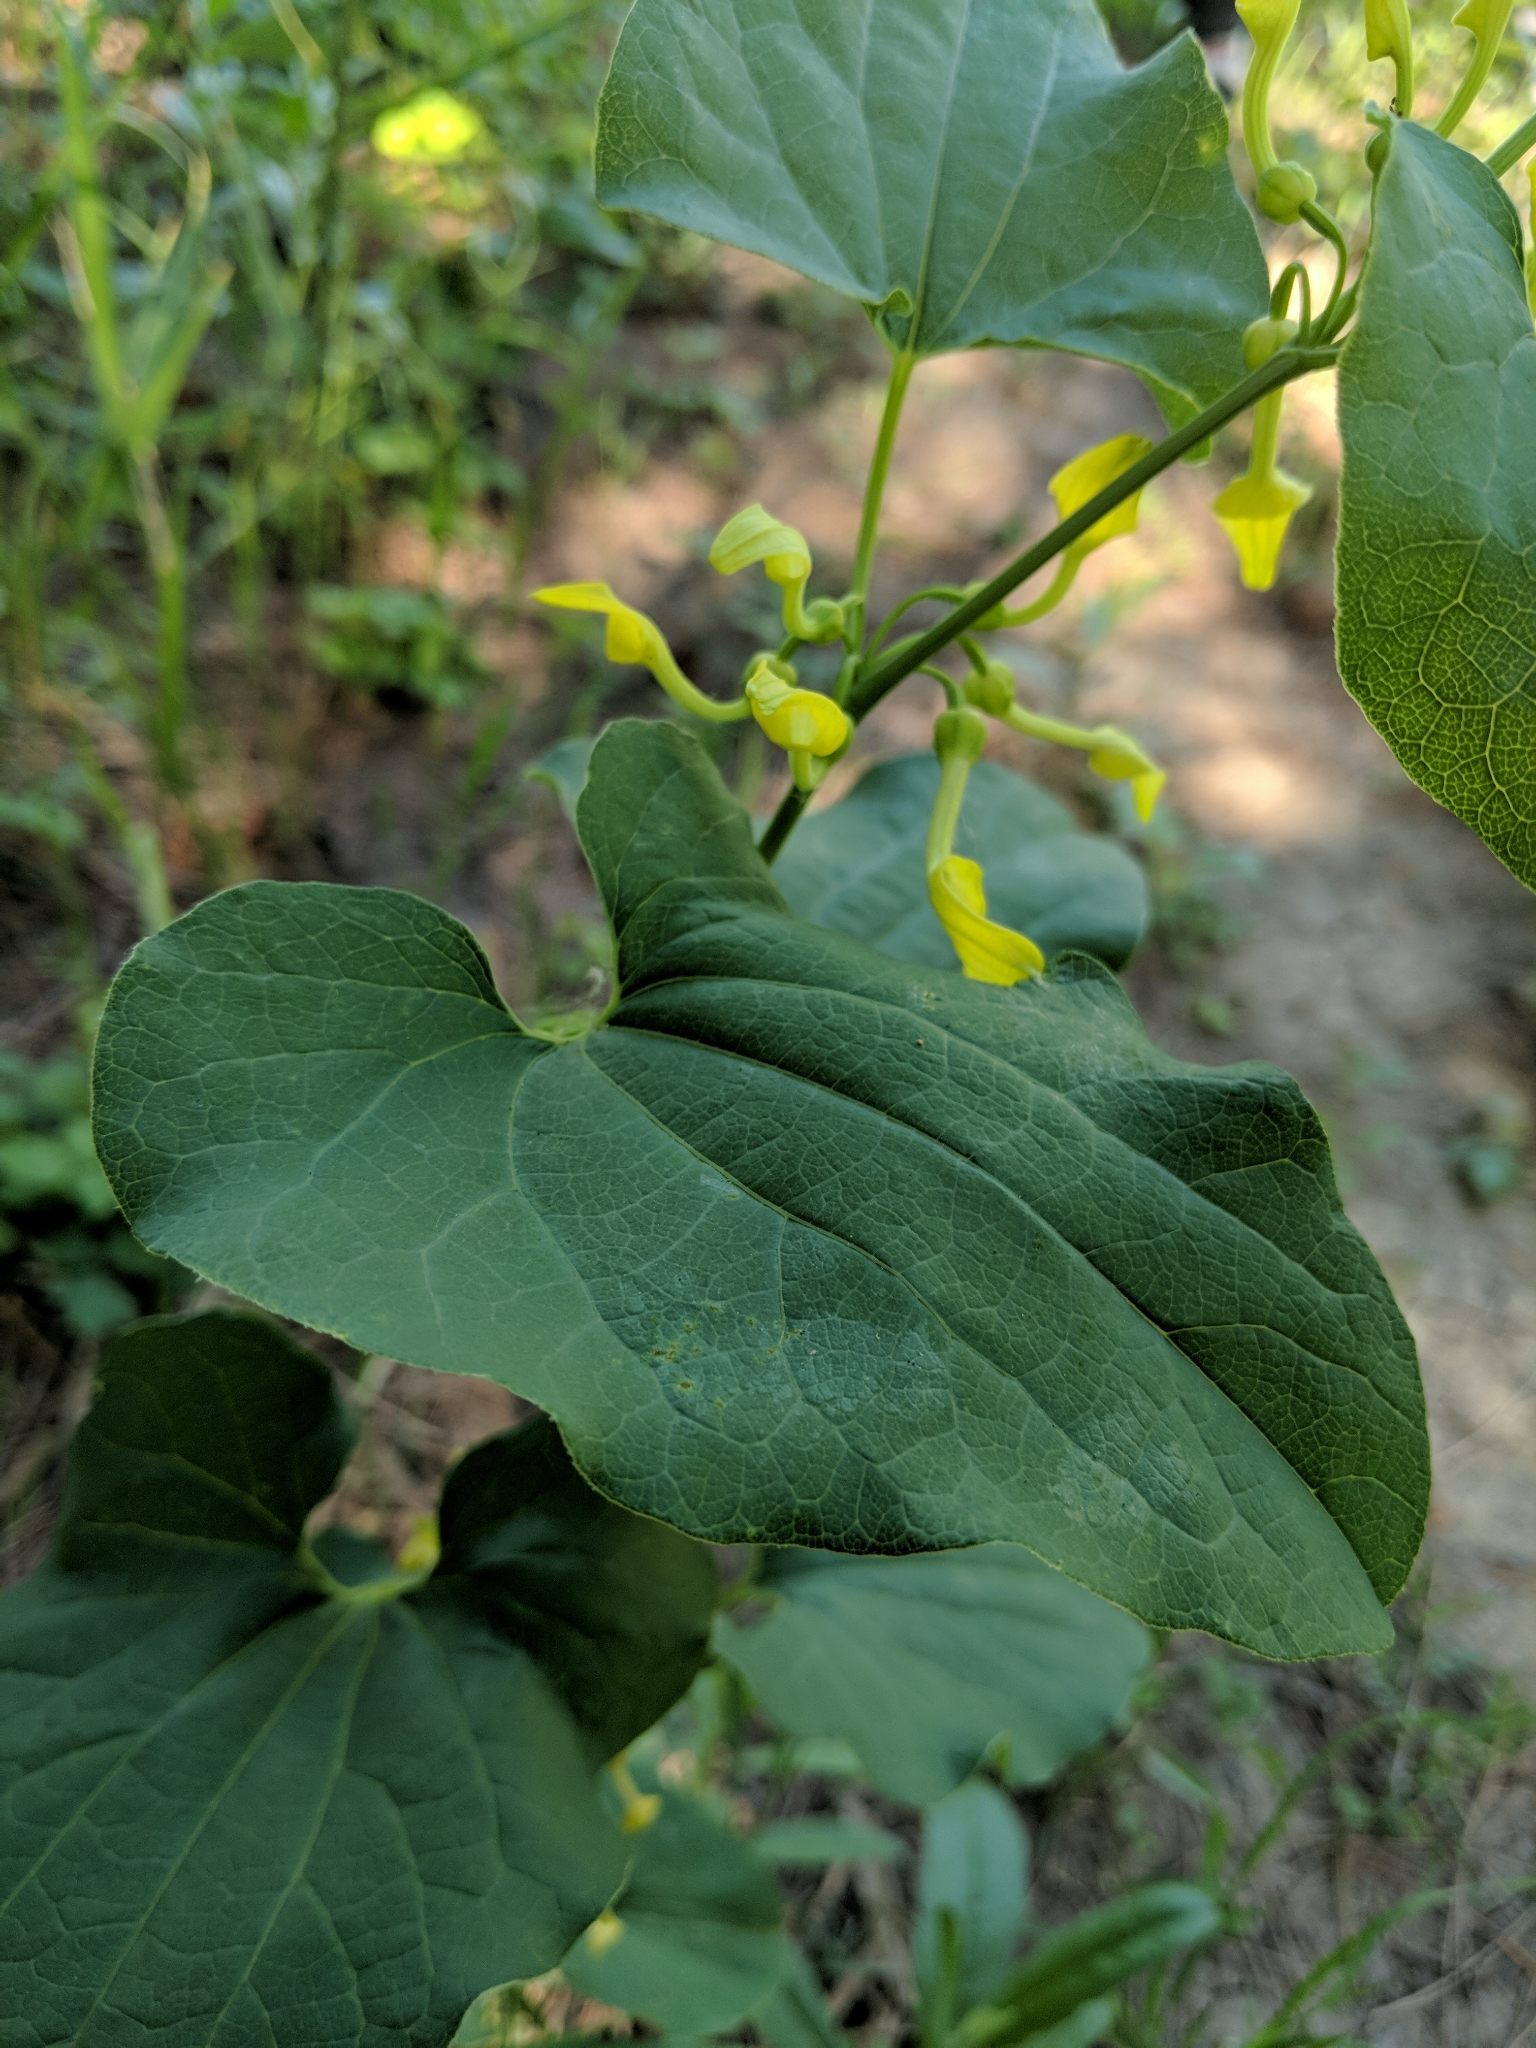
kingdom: Plantae
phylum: Tracheophyta
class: Magnoliopsida
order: Piperales
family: Aristolochiaceae
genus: Aristolochia
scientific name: Aristolochia clematitis
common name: Birthwort
